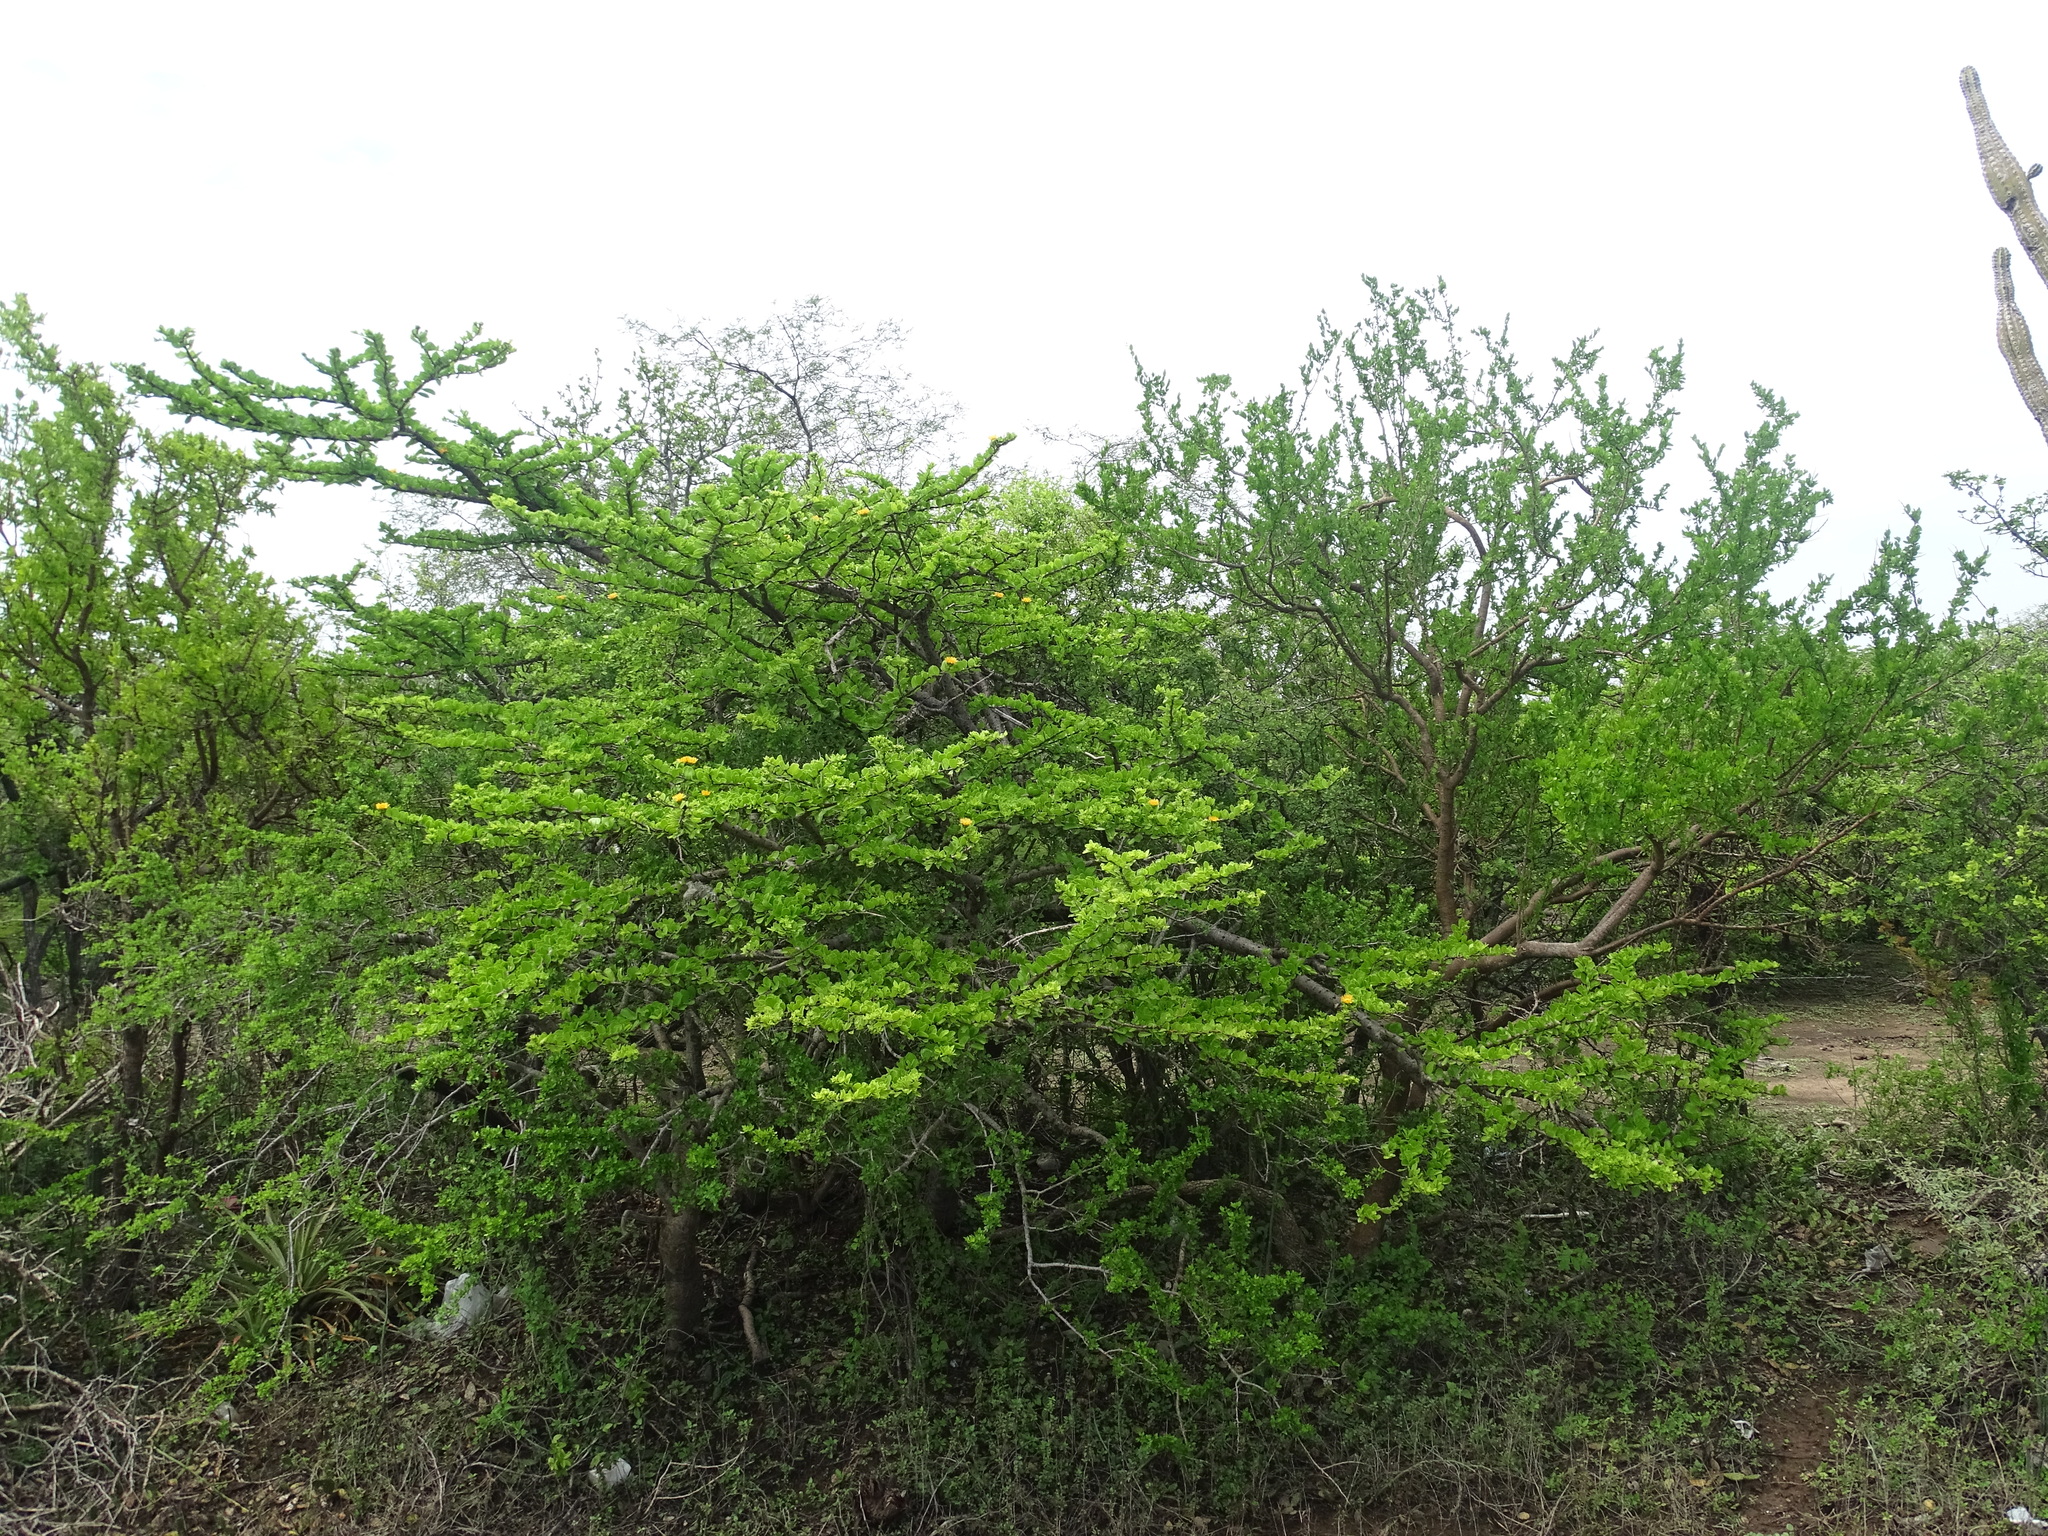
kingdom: Plantae
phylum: Tracheophyta
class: Magnoliopsida
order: Caryophyllales
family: Cactaceae
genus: Leuenbergeria
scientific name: Leuenbergeria lychnidiflora
